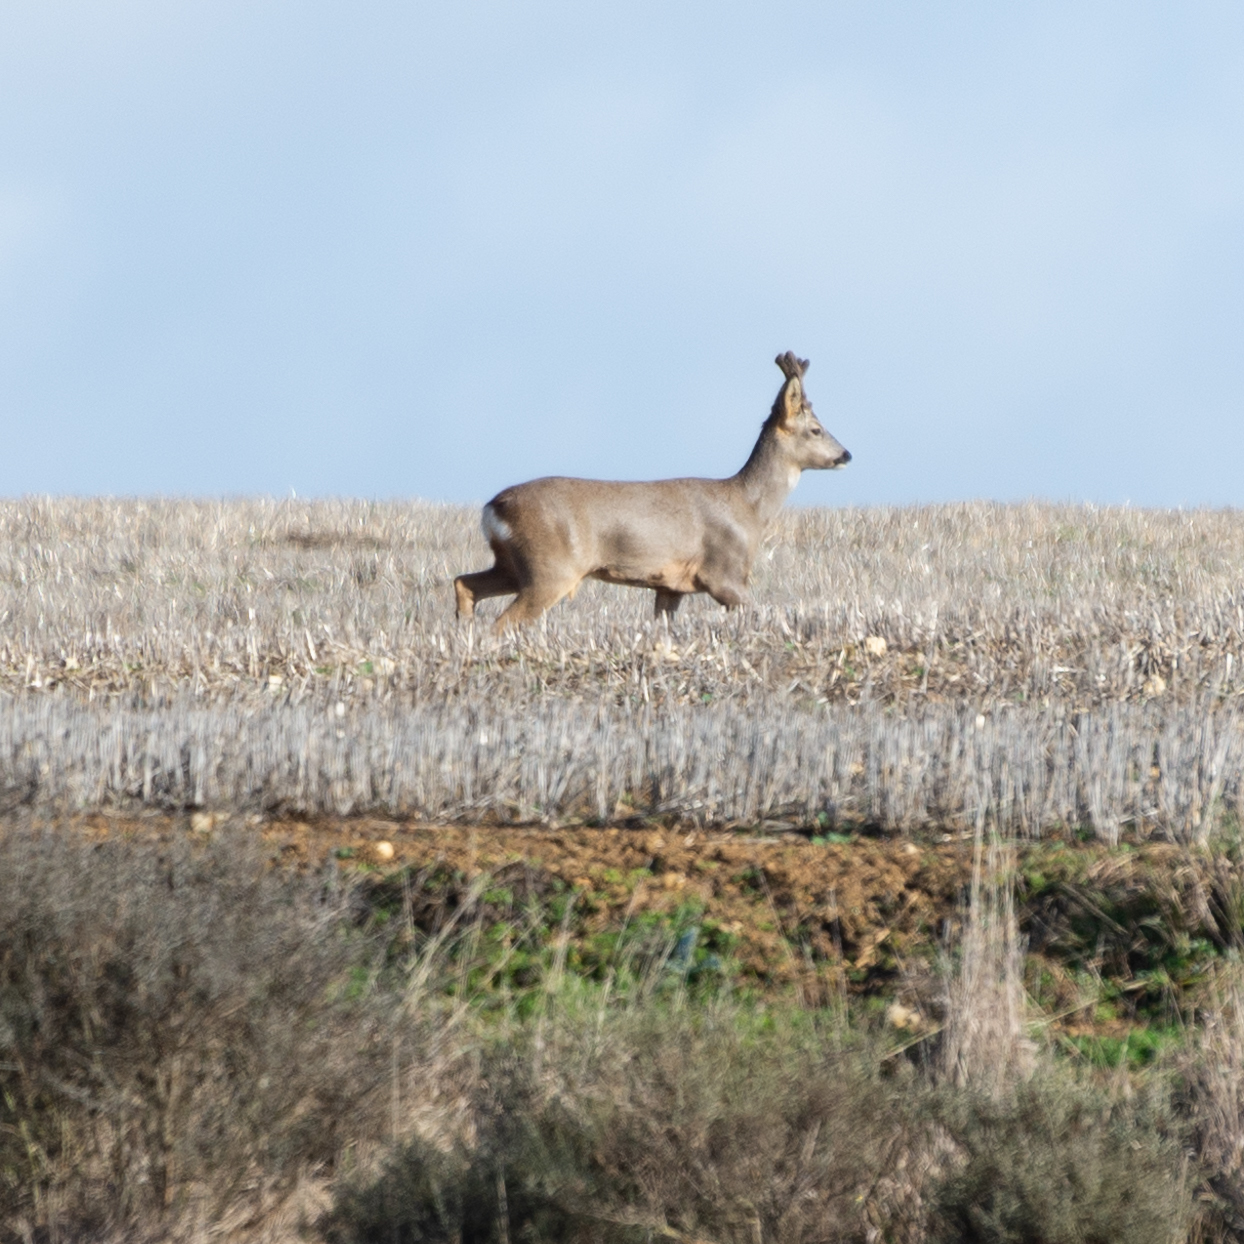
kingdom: Animalia
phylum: Chordata
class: Mammalia
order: Artiodactyla
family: Cervidae
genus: Capreolus
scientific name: Capreolus capreolus
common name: Western roe deer
